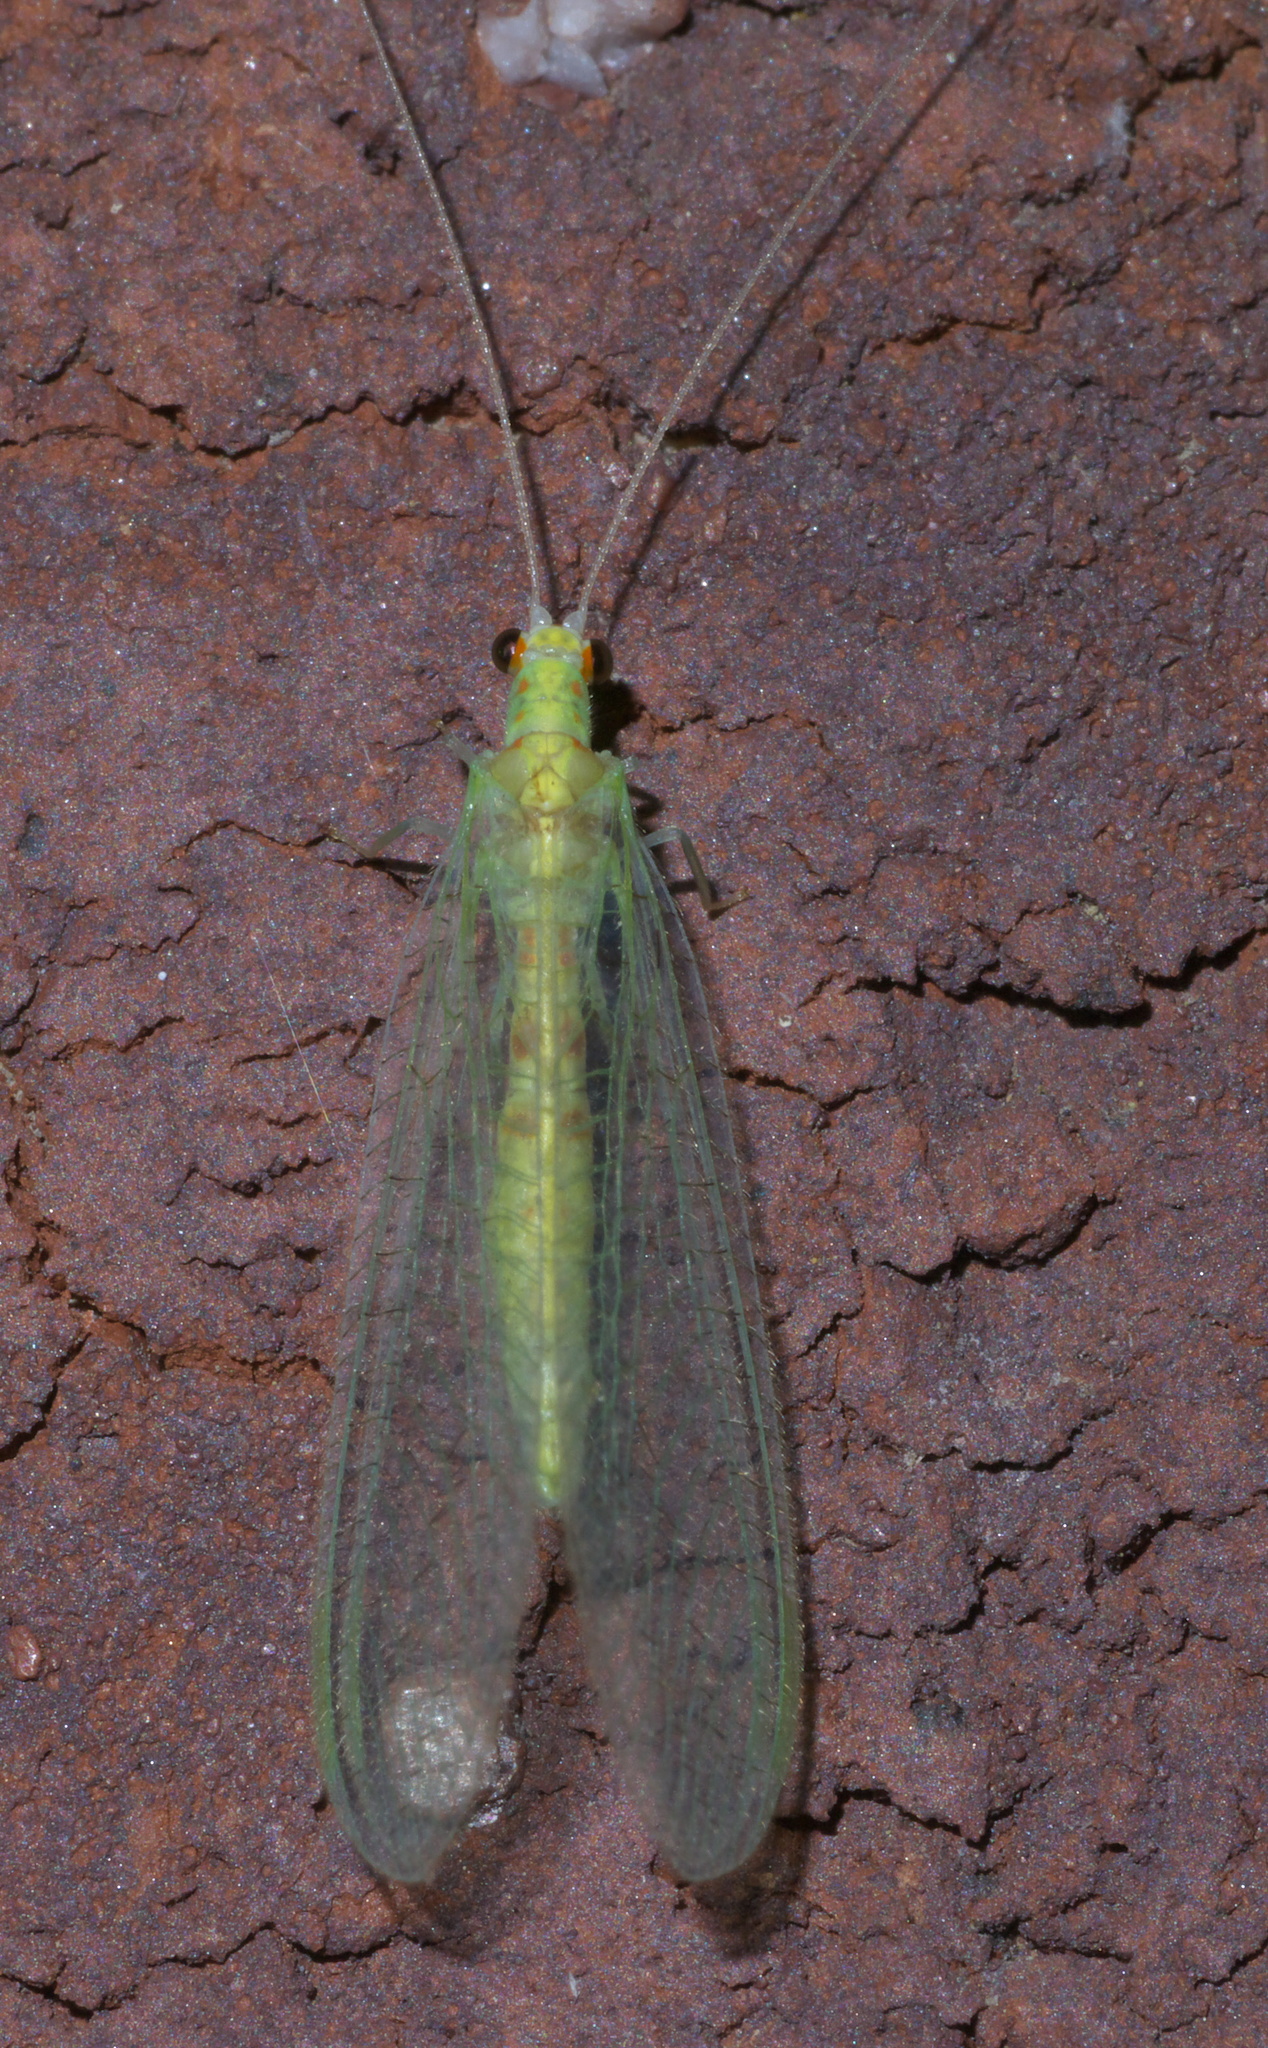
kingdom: Animalia
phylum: Arthropoda
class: Insecta
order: Neuroptera
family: Chrysopidae
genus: Chrysopa
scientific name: Chrysopa quadripunctata
